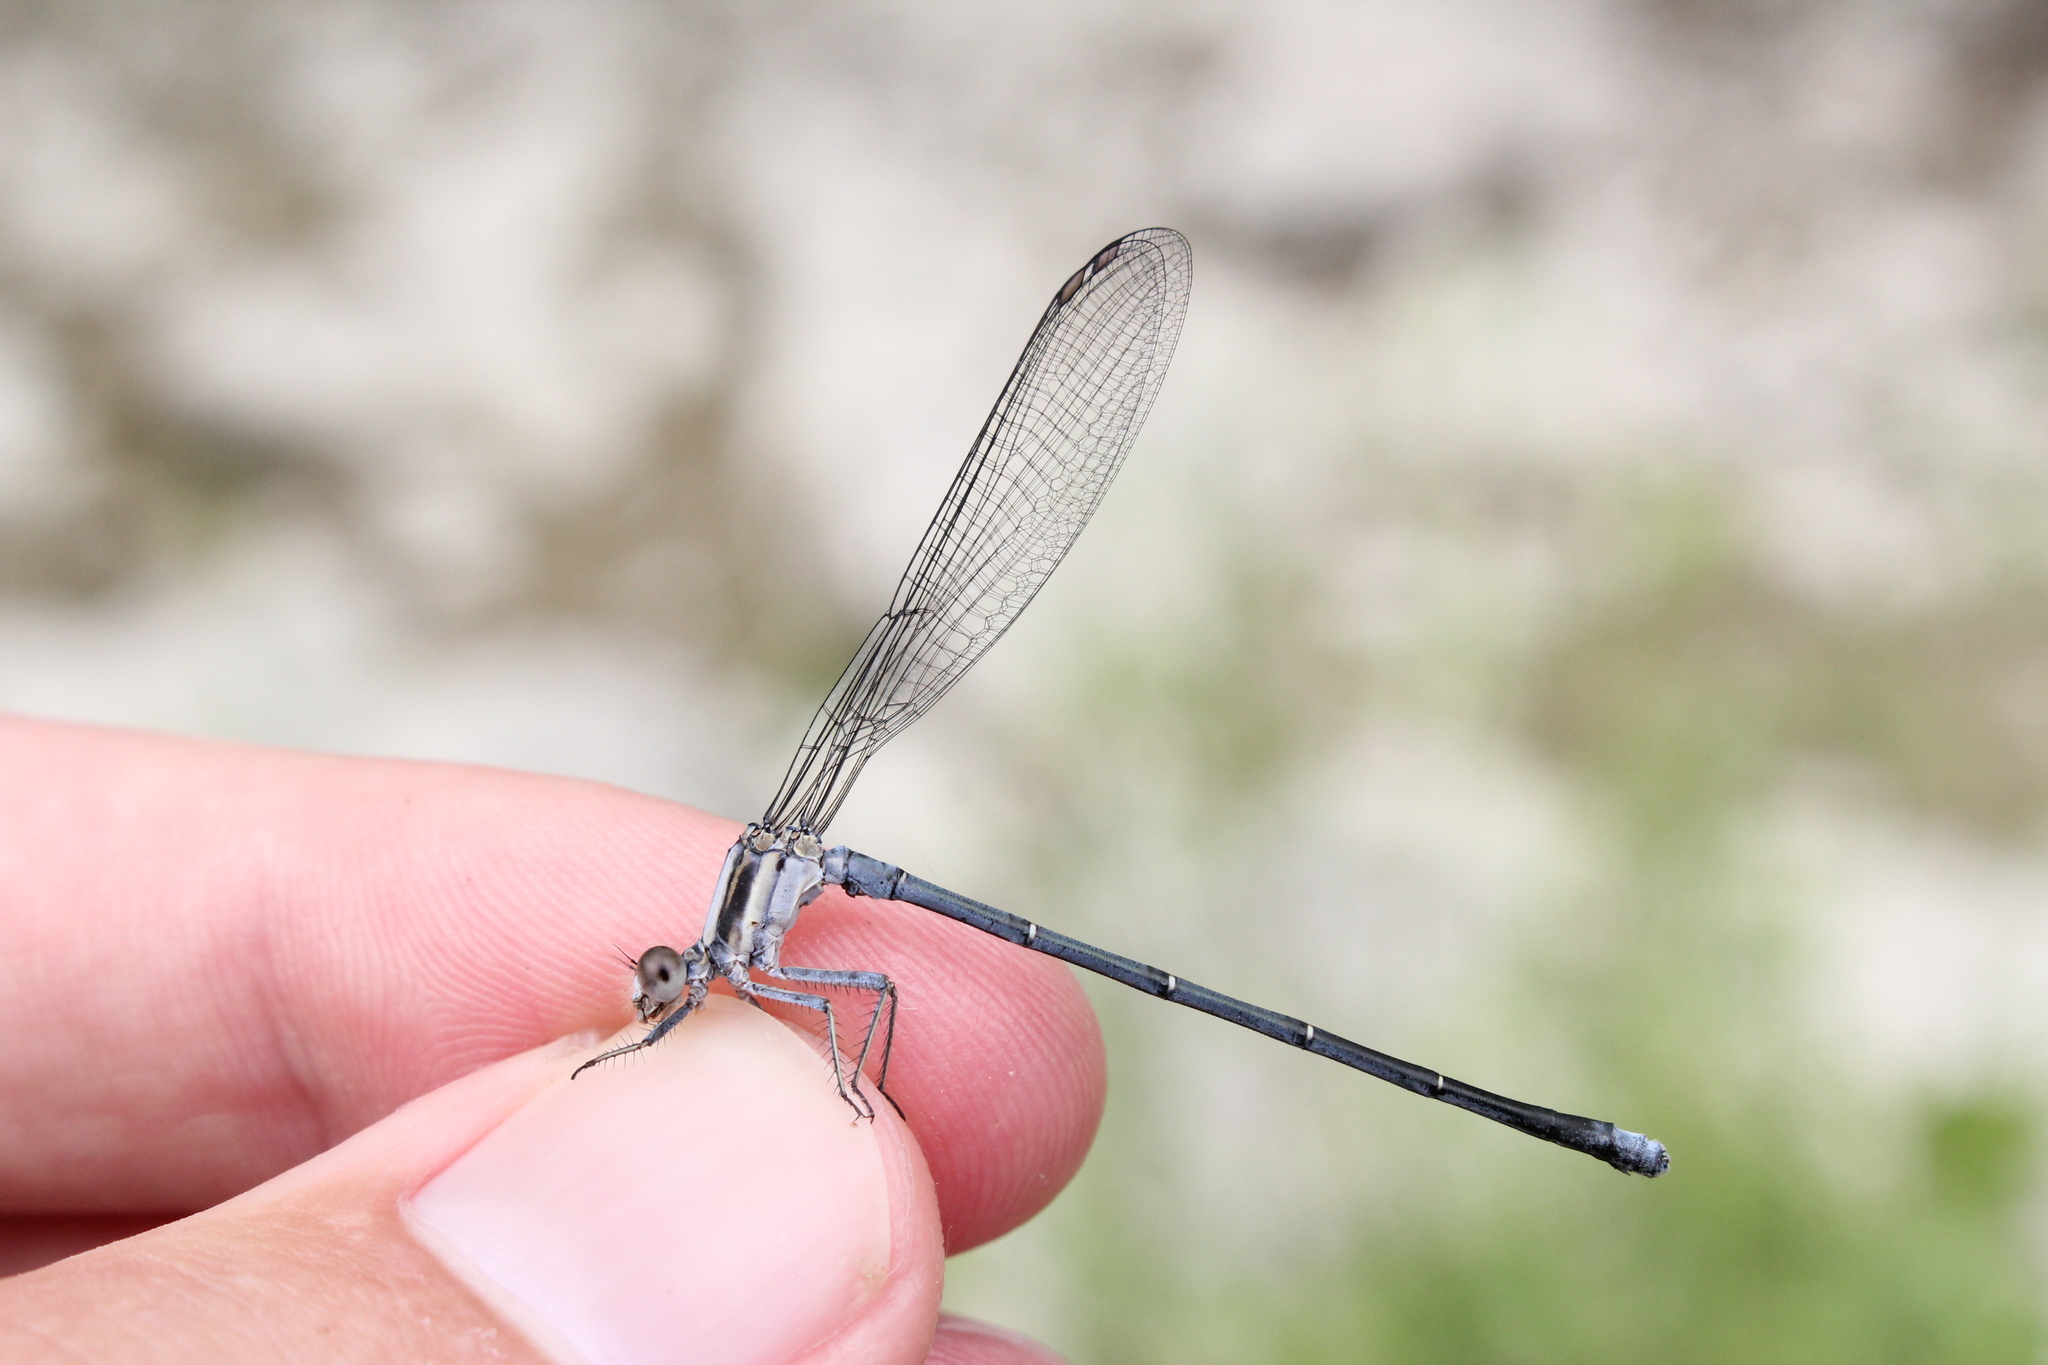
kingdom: Animalia
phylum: Arthropoda
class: Insecta
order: Odonata
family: Coenagrionidae
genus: Argia
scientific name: Argia moesta
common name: Powdered dancer
